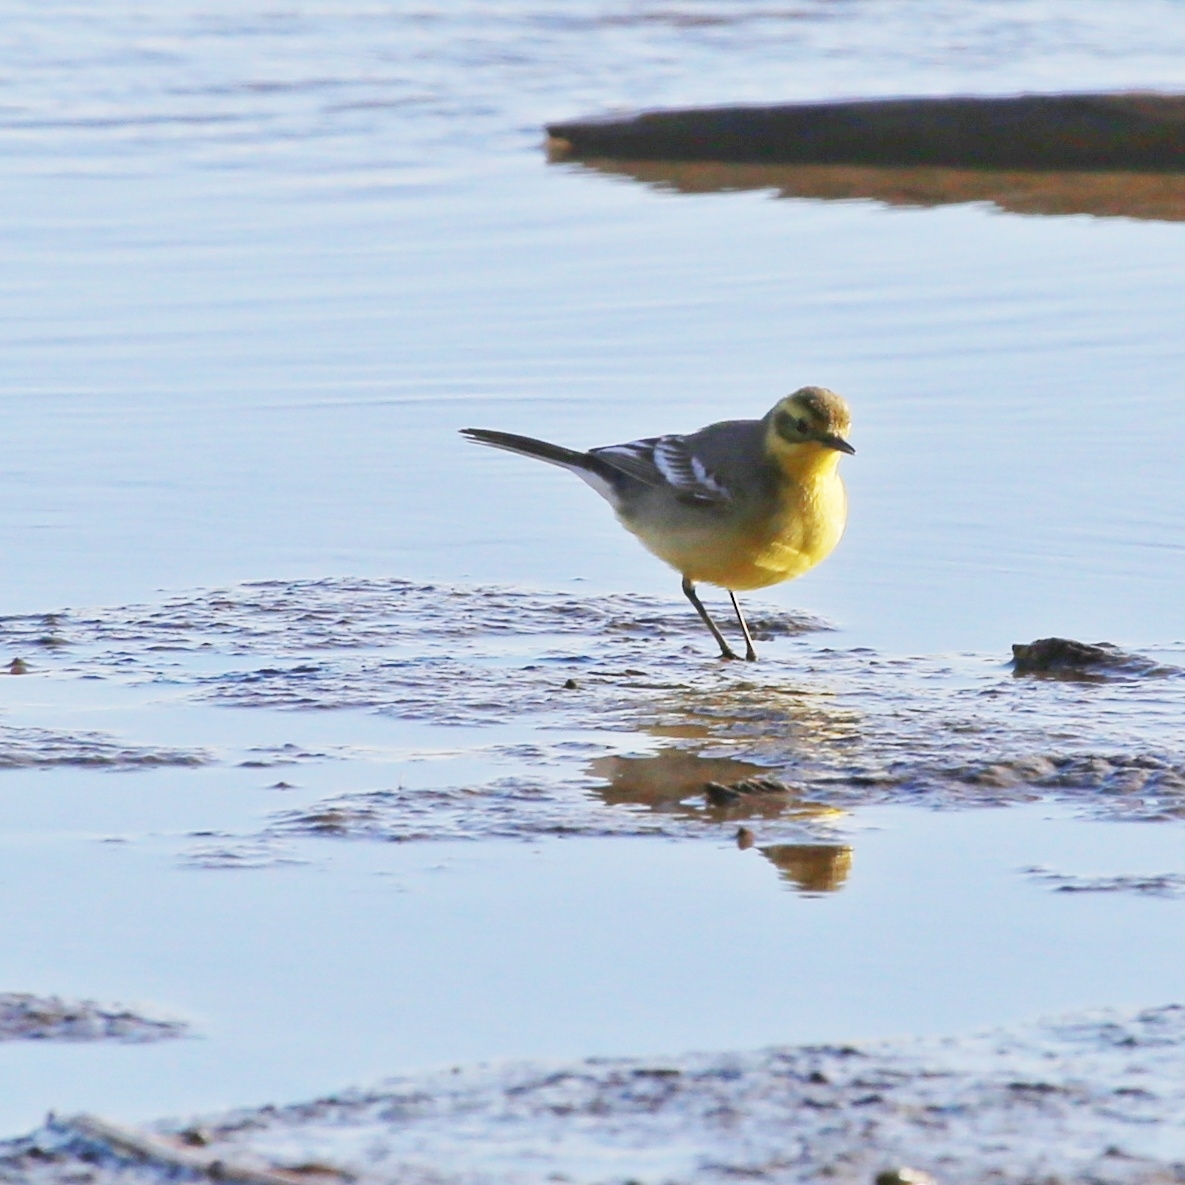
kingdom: Animalia
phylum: Chordata
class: Aves
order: Passeriformes
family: Motacillidae
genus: Motacilla
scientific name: Motacilla citreola
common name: Citrine wagtail
